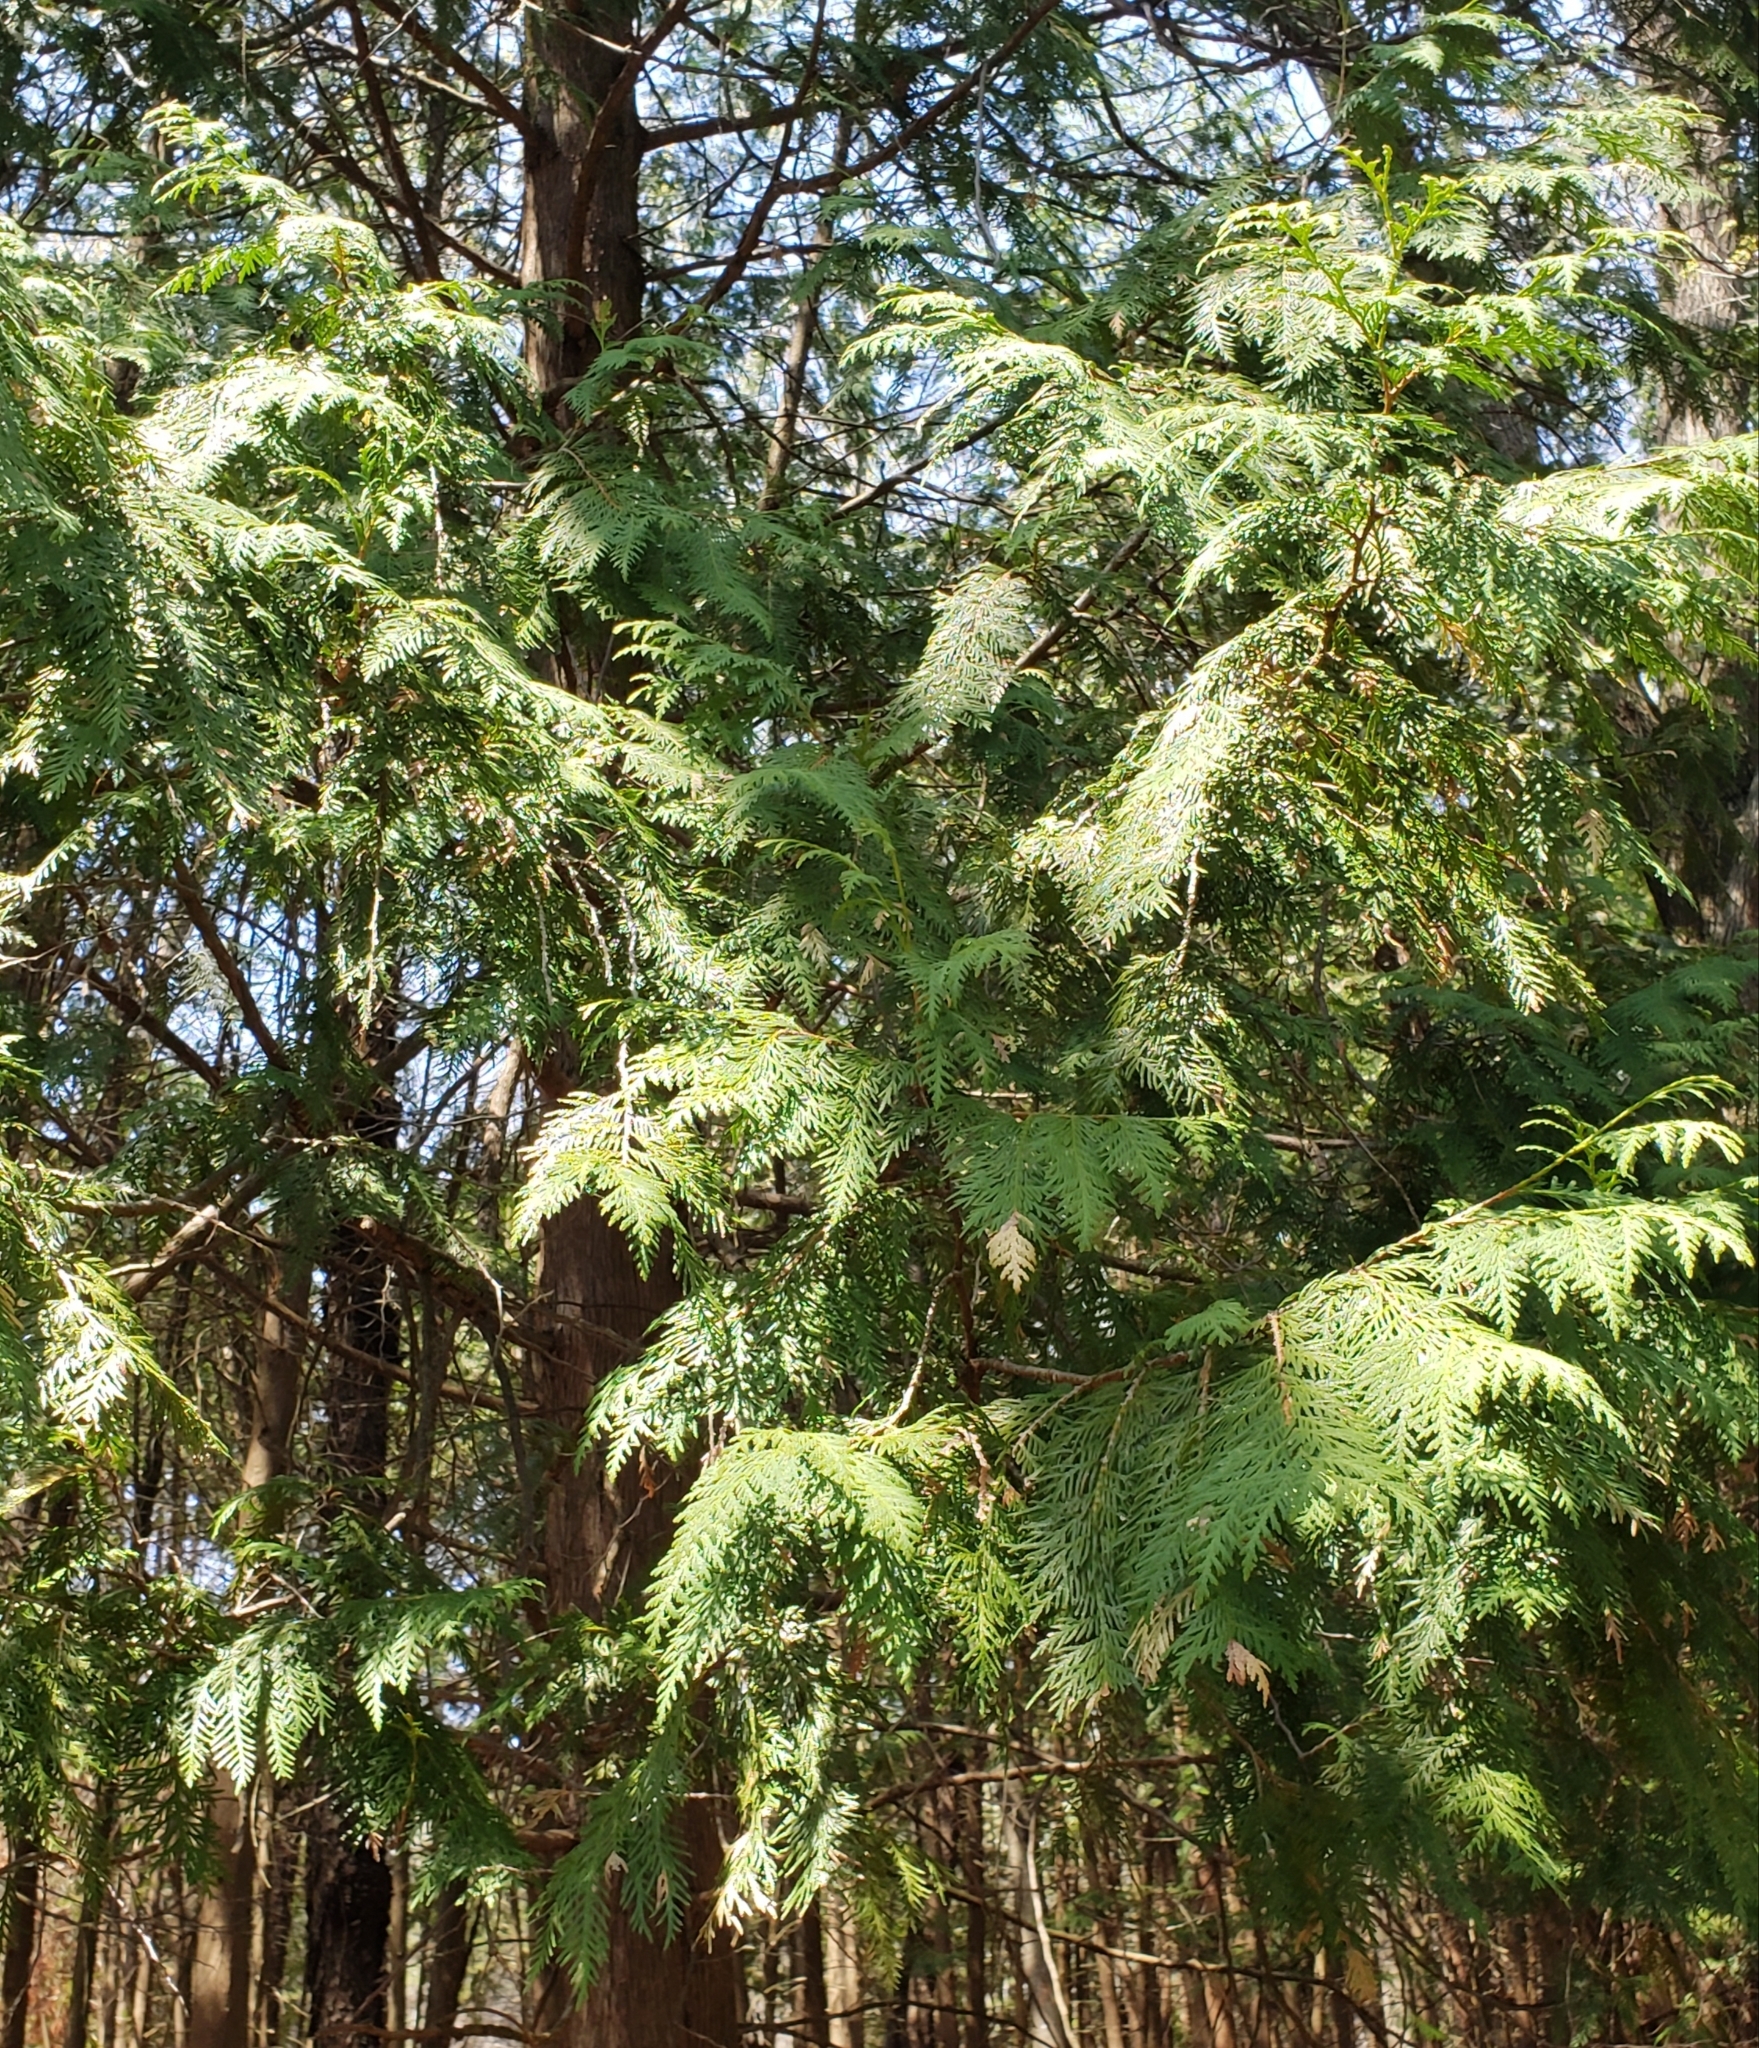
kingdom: Plantae
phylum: Tracheophyta
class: Pinopsida
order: Pinales
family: Cupressaceae
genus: Thuja
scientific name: Thuja occidentalis
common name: Northern white-cedar
